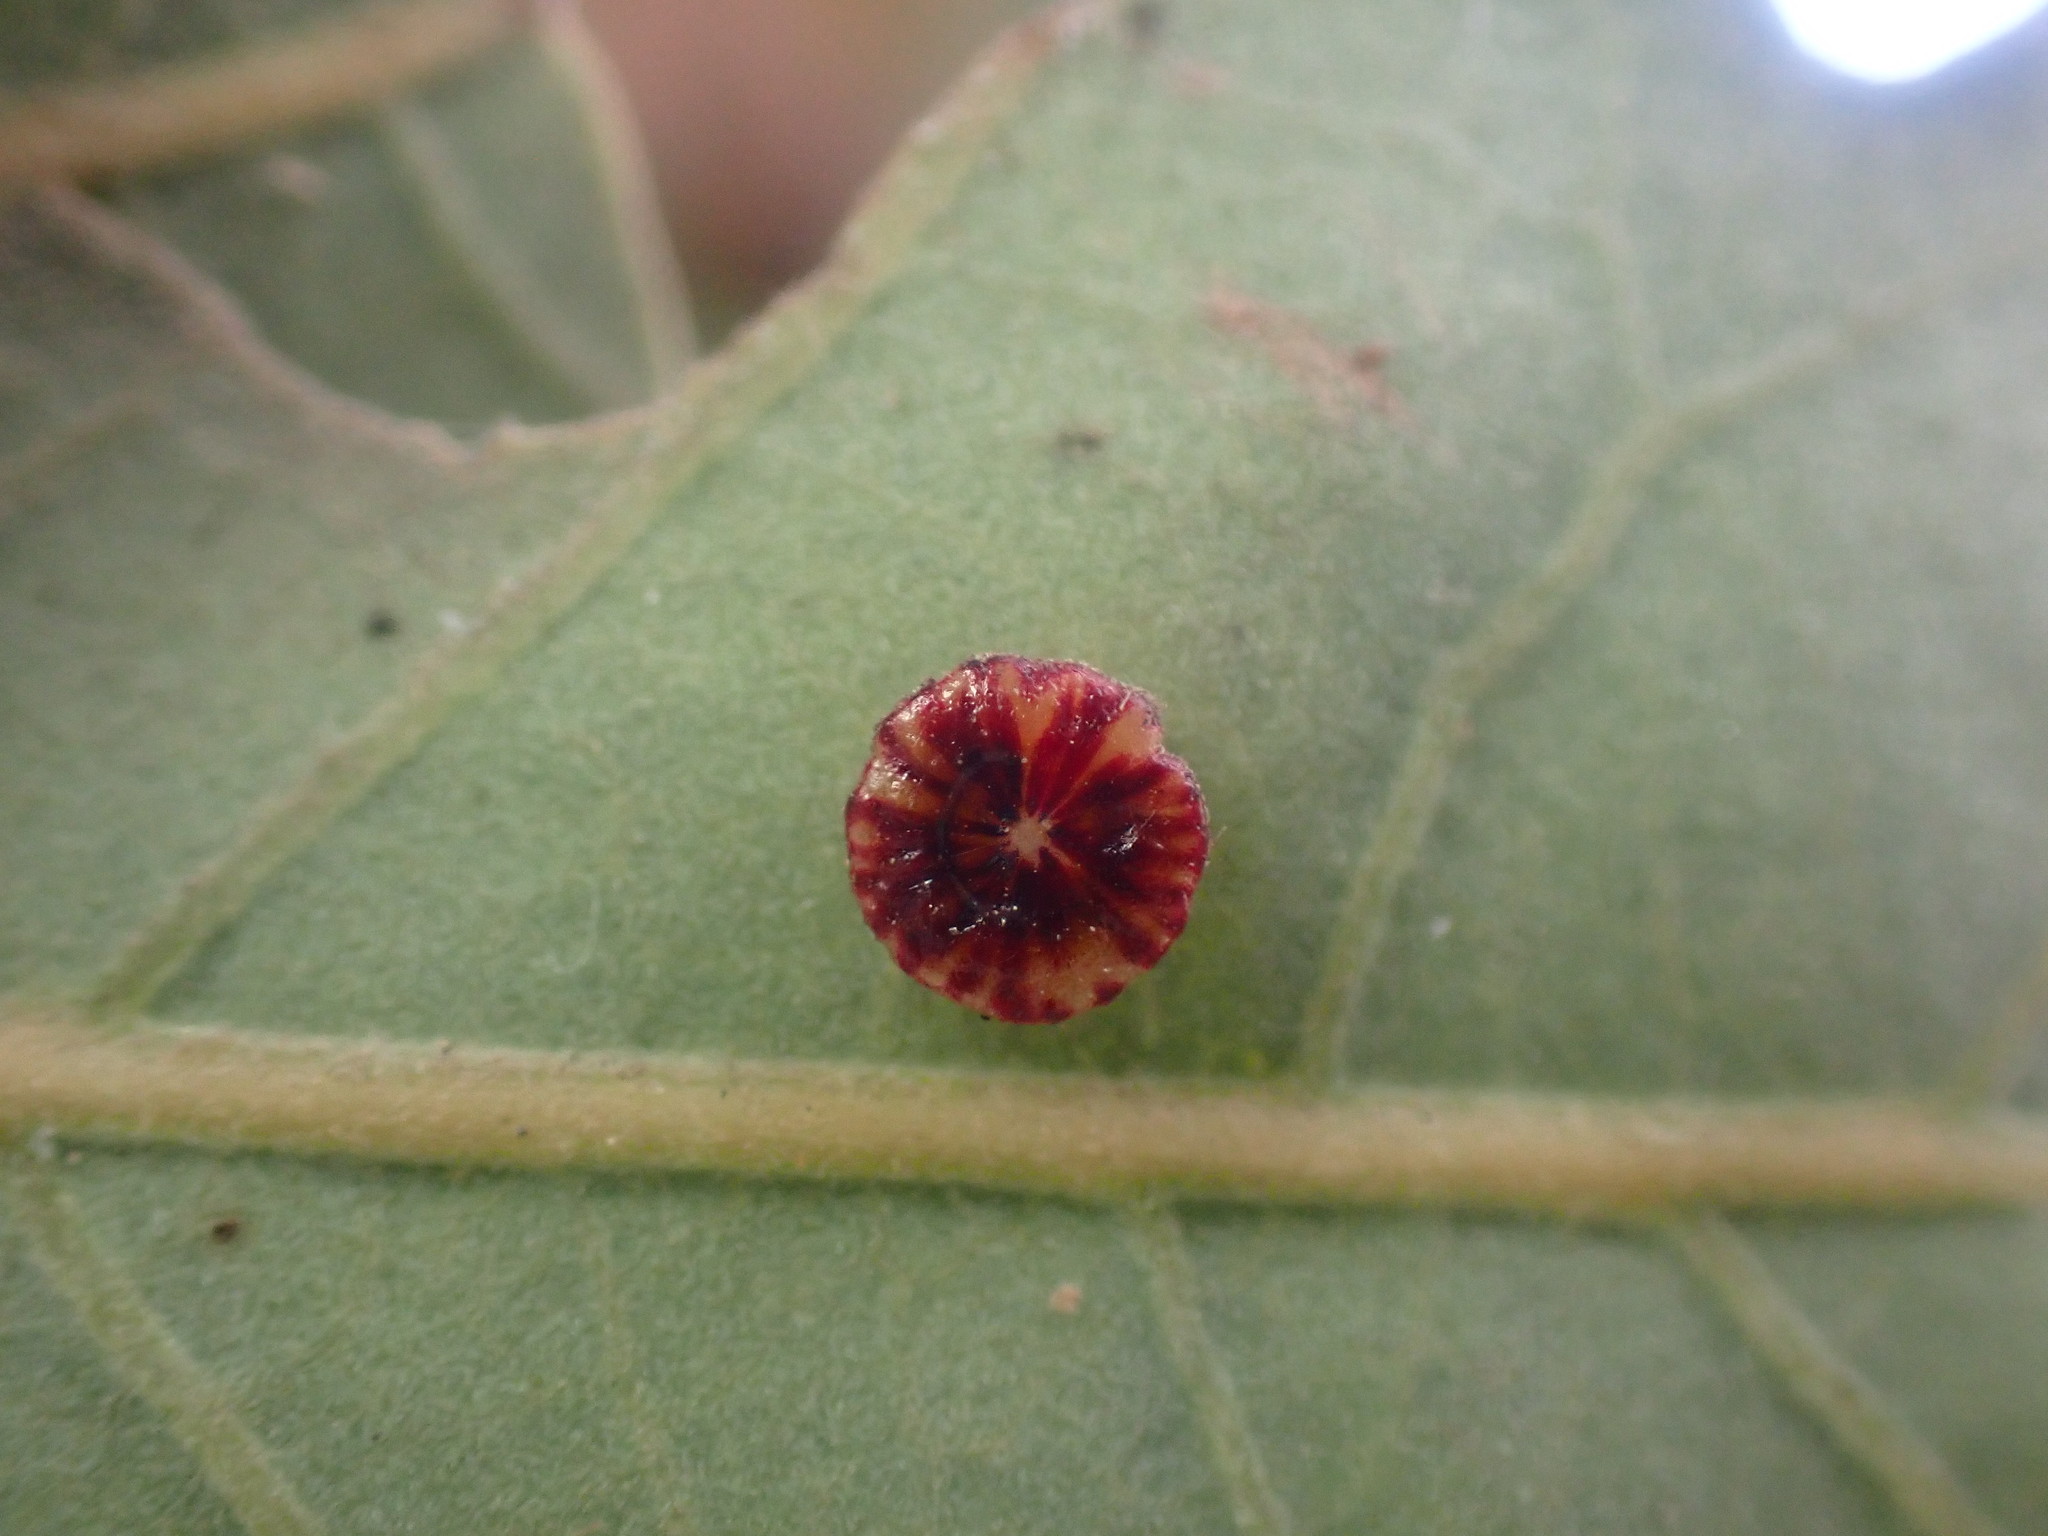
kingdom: Animalia
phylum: Arthropoda
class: Insecta
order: Hymenoptera
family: Cynipidae
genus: Andricus
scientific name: Andricus
